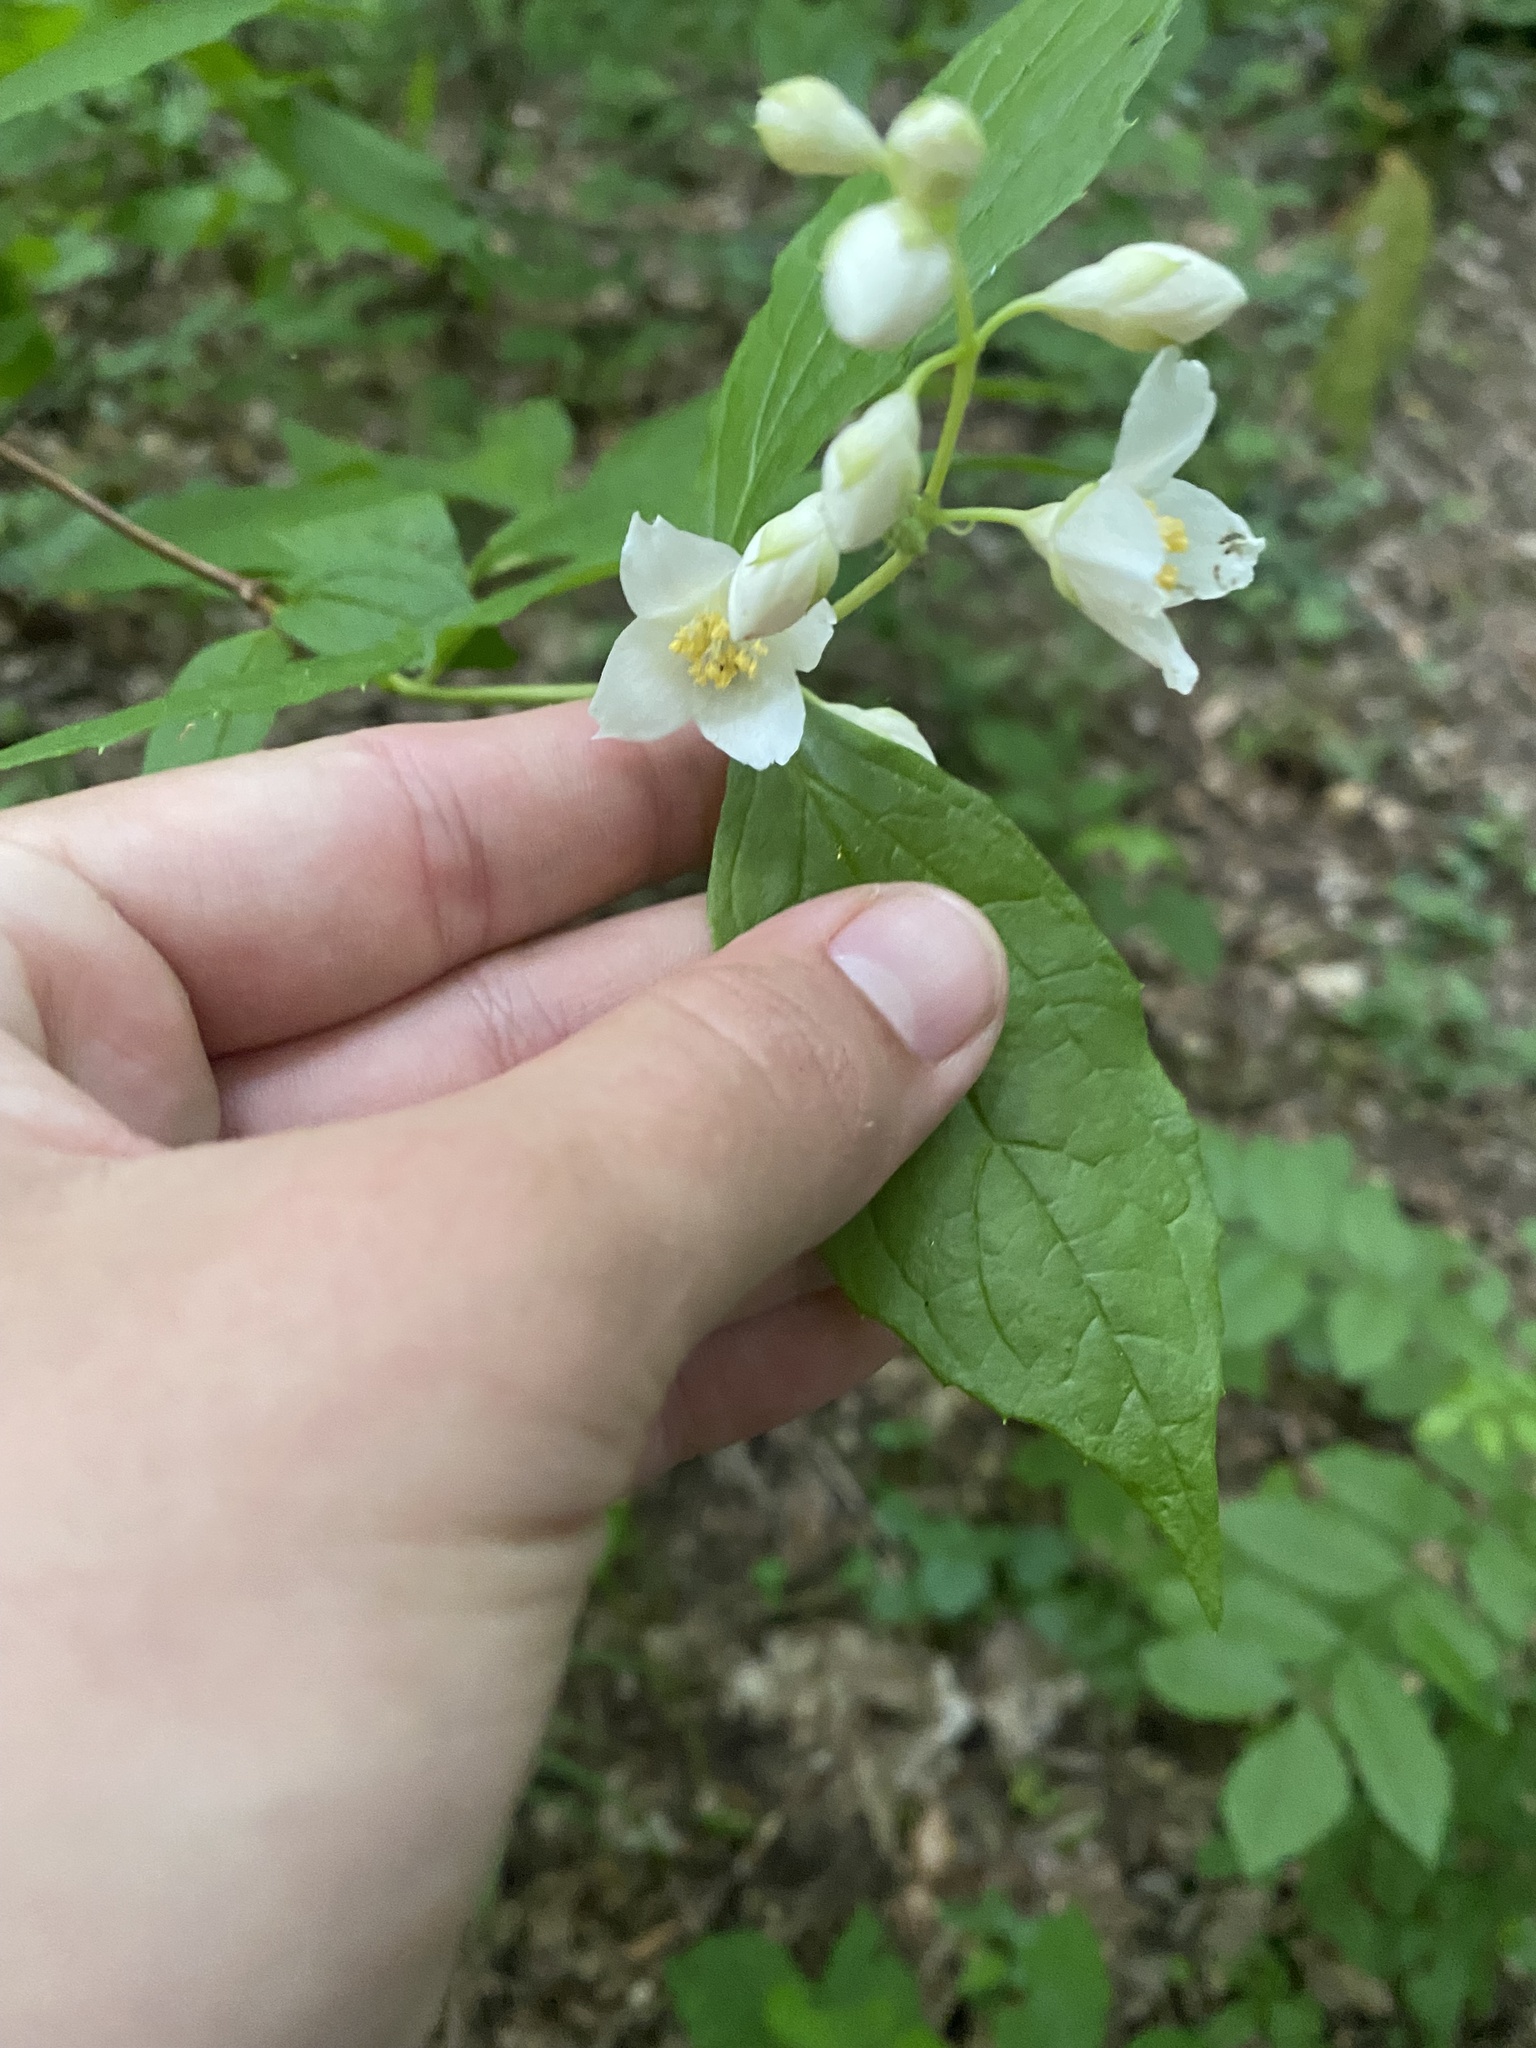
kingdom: Plantae
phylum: Tracheophyta
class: Magnoliopsida
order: Cornales
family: Hydrangeaceae
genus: Philadelphus
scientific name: Philadelphus coronarius
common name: Mock orange
